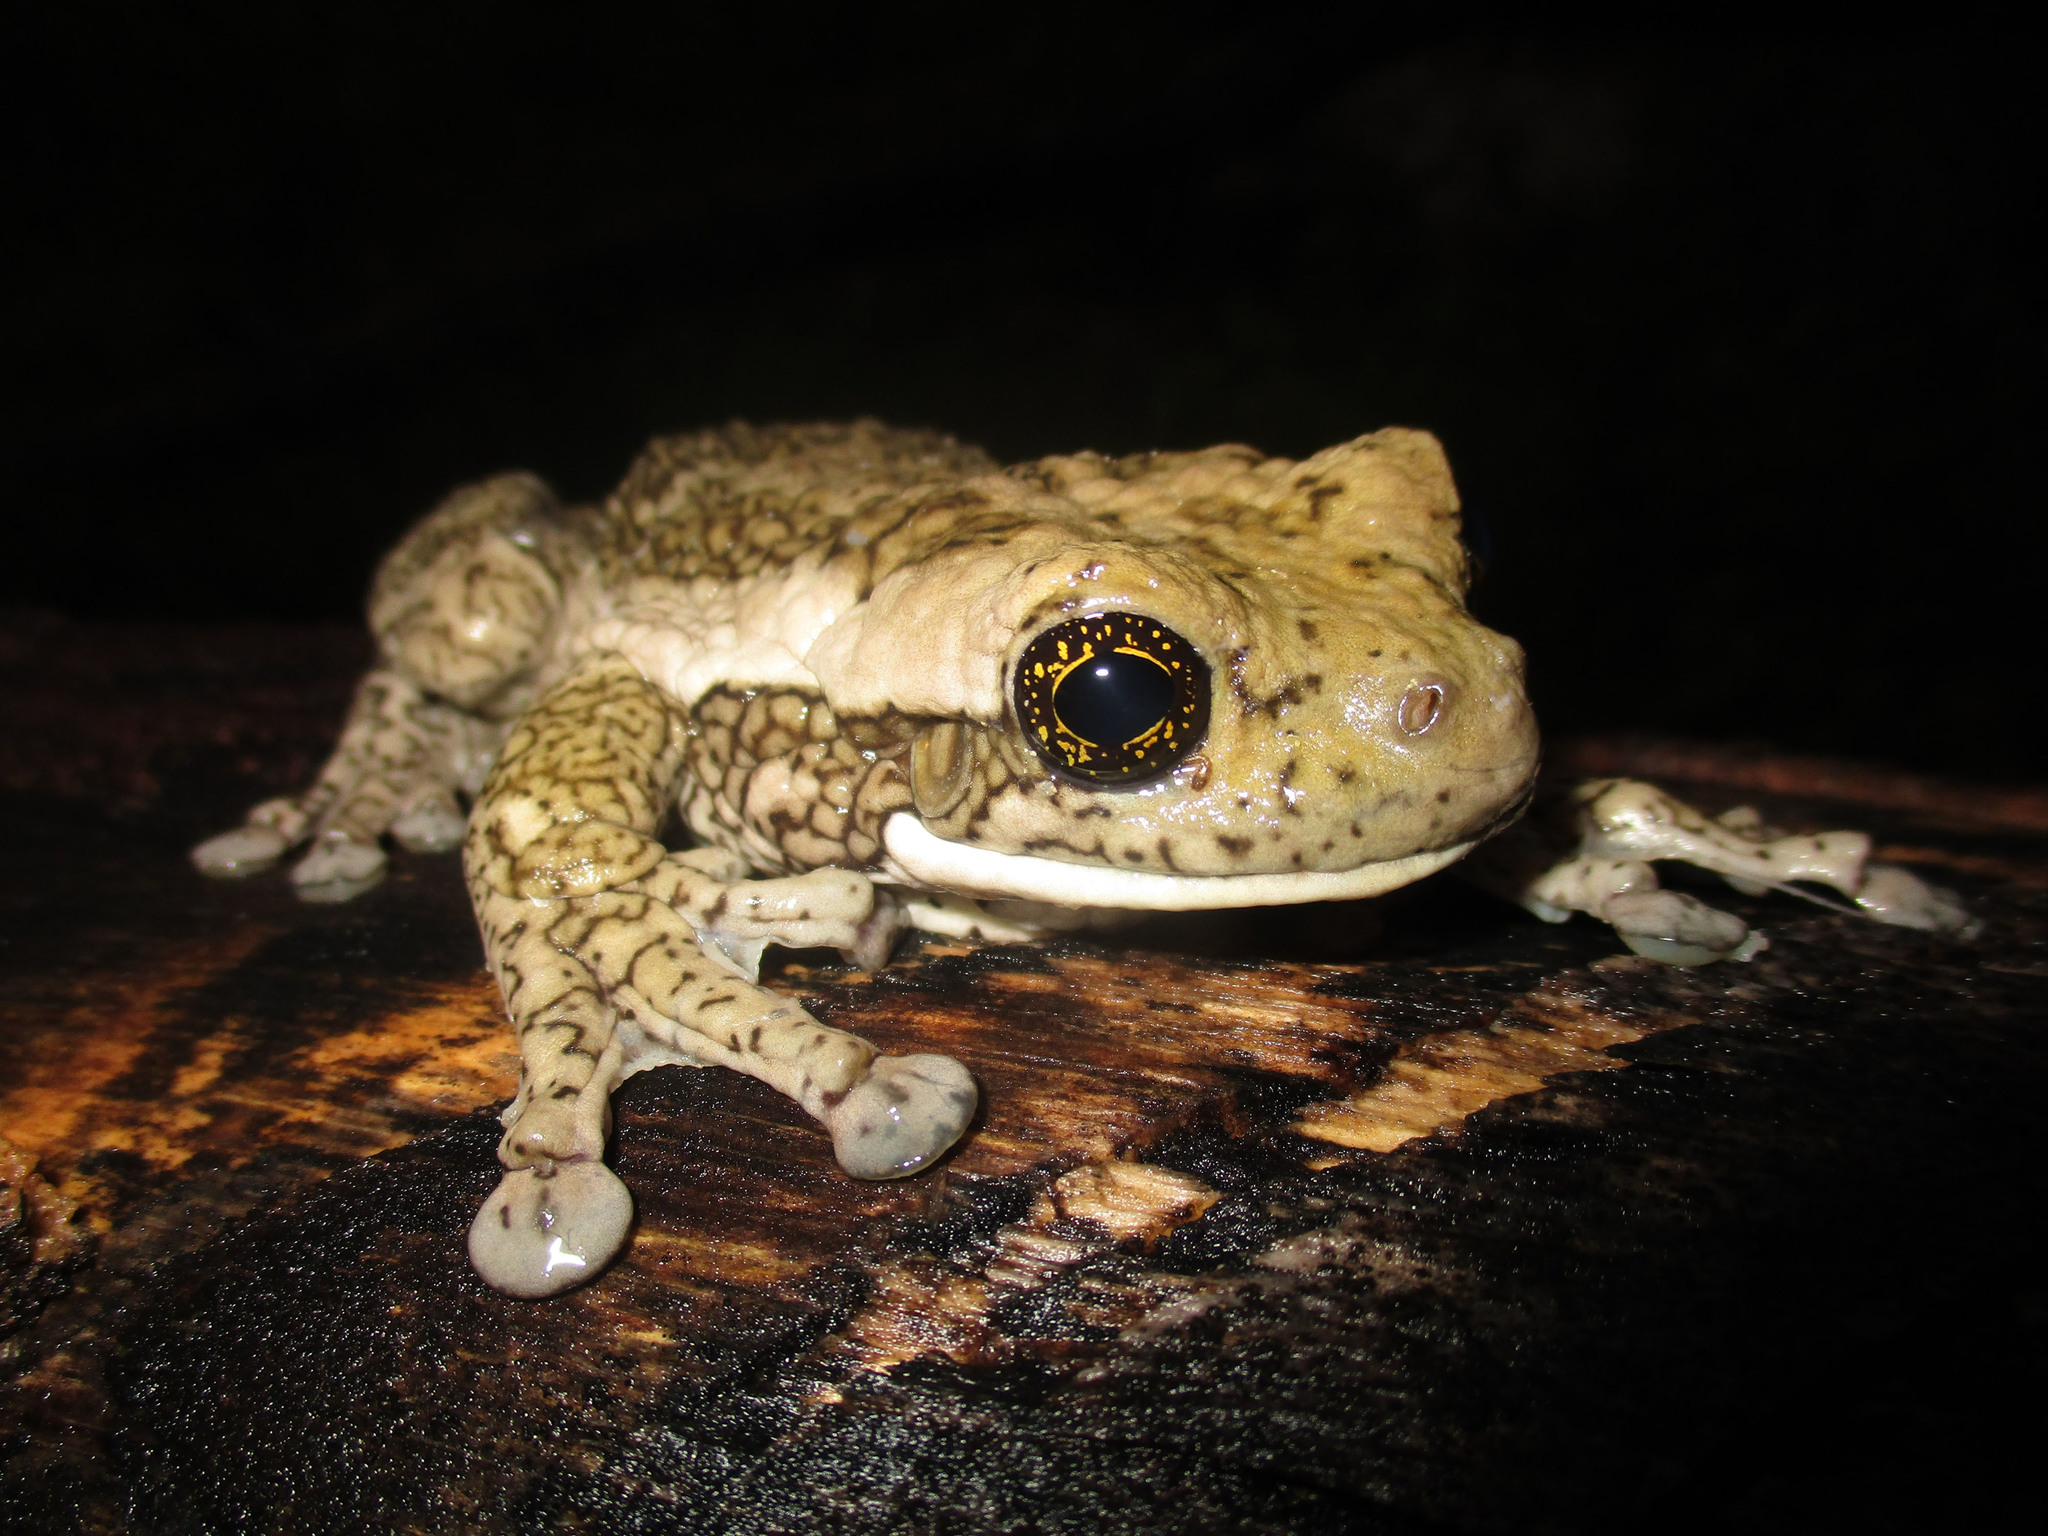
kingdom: Animalia
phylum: Chordata
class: Amphibia
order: Anura
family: Hylidae
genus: Trachycephalus
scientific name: Trachycephalus vermiculatus
